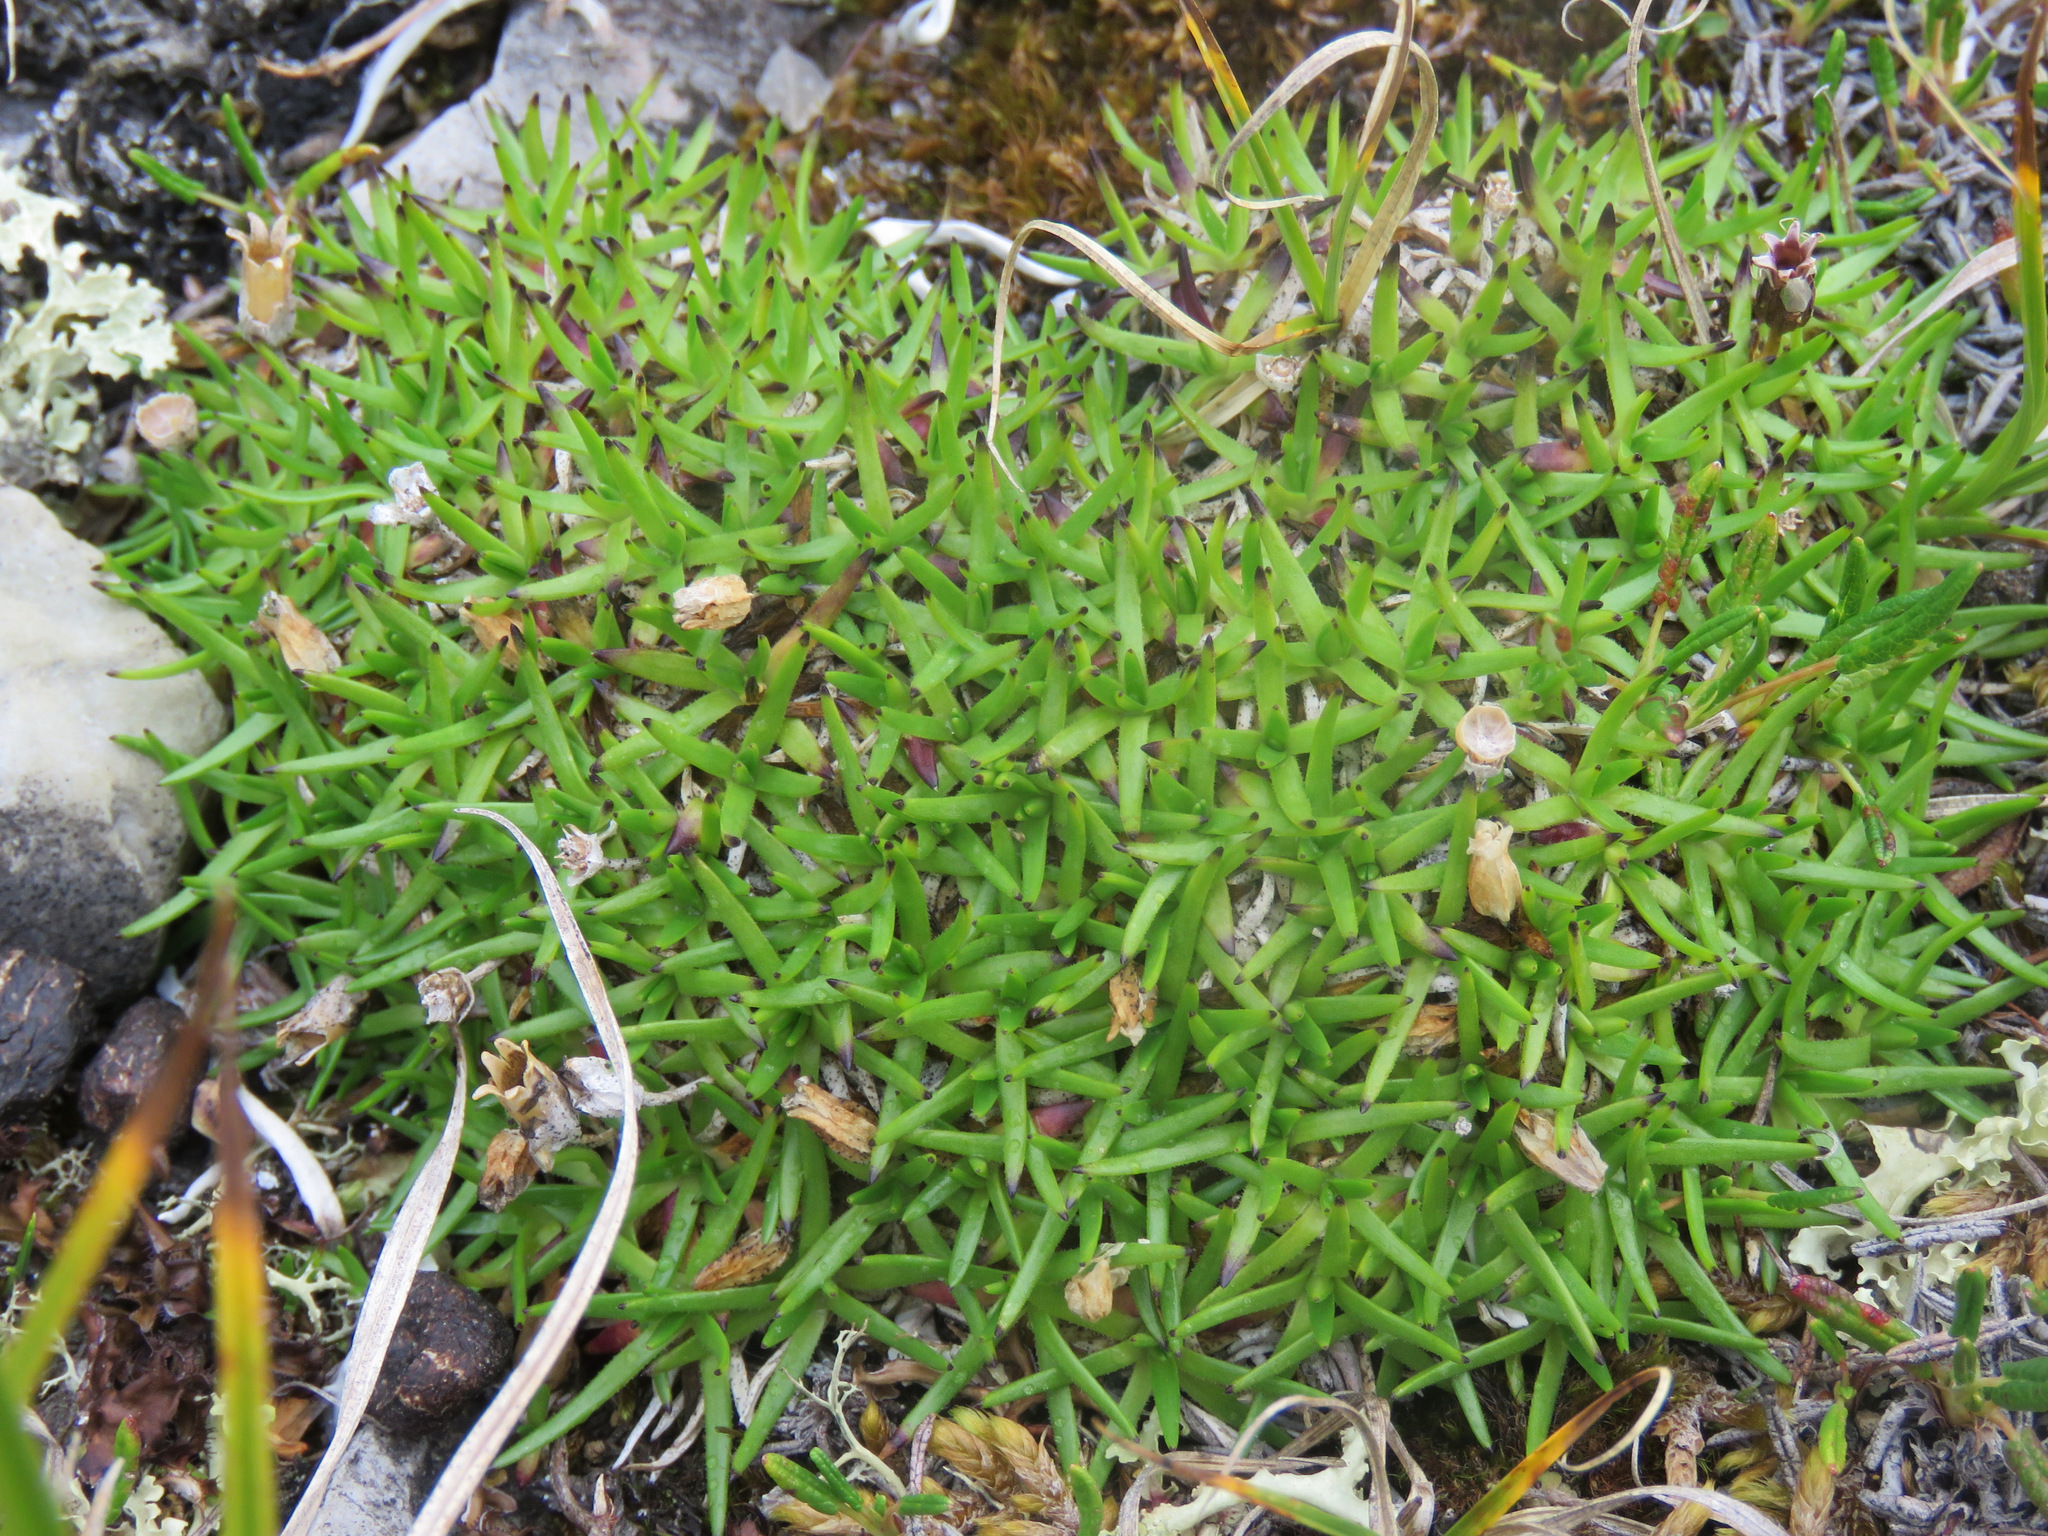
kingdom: Plantae
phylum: Tracheophyta
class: Magnoliopsida
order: Caryophyllales
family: Caryophyllaceae
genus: Silene
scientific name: Silene acaulis
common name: Moss campion
